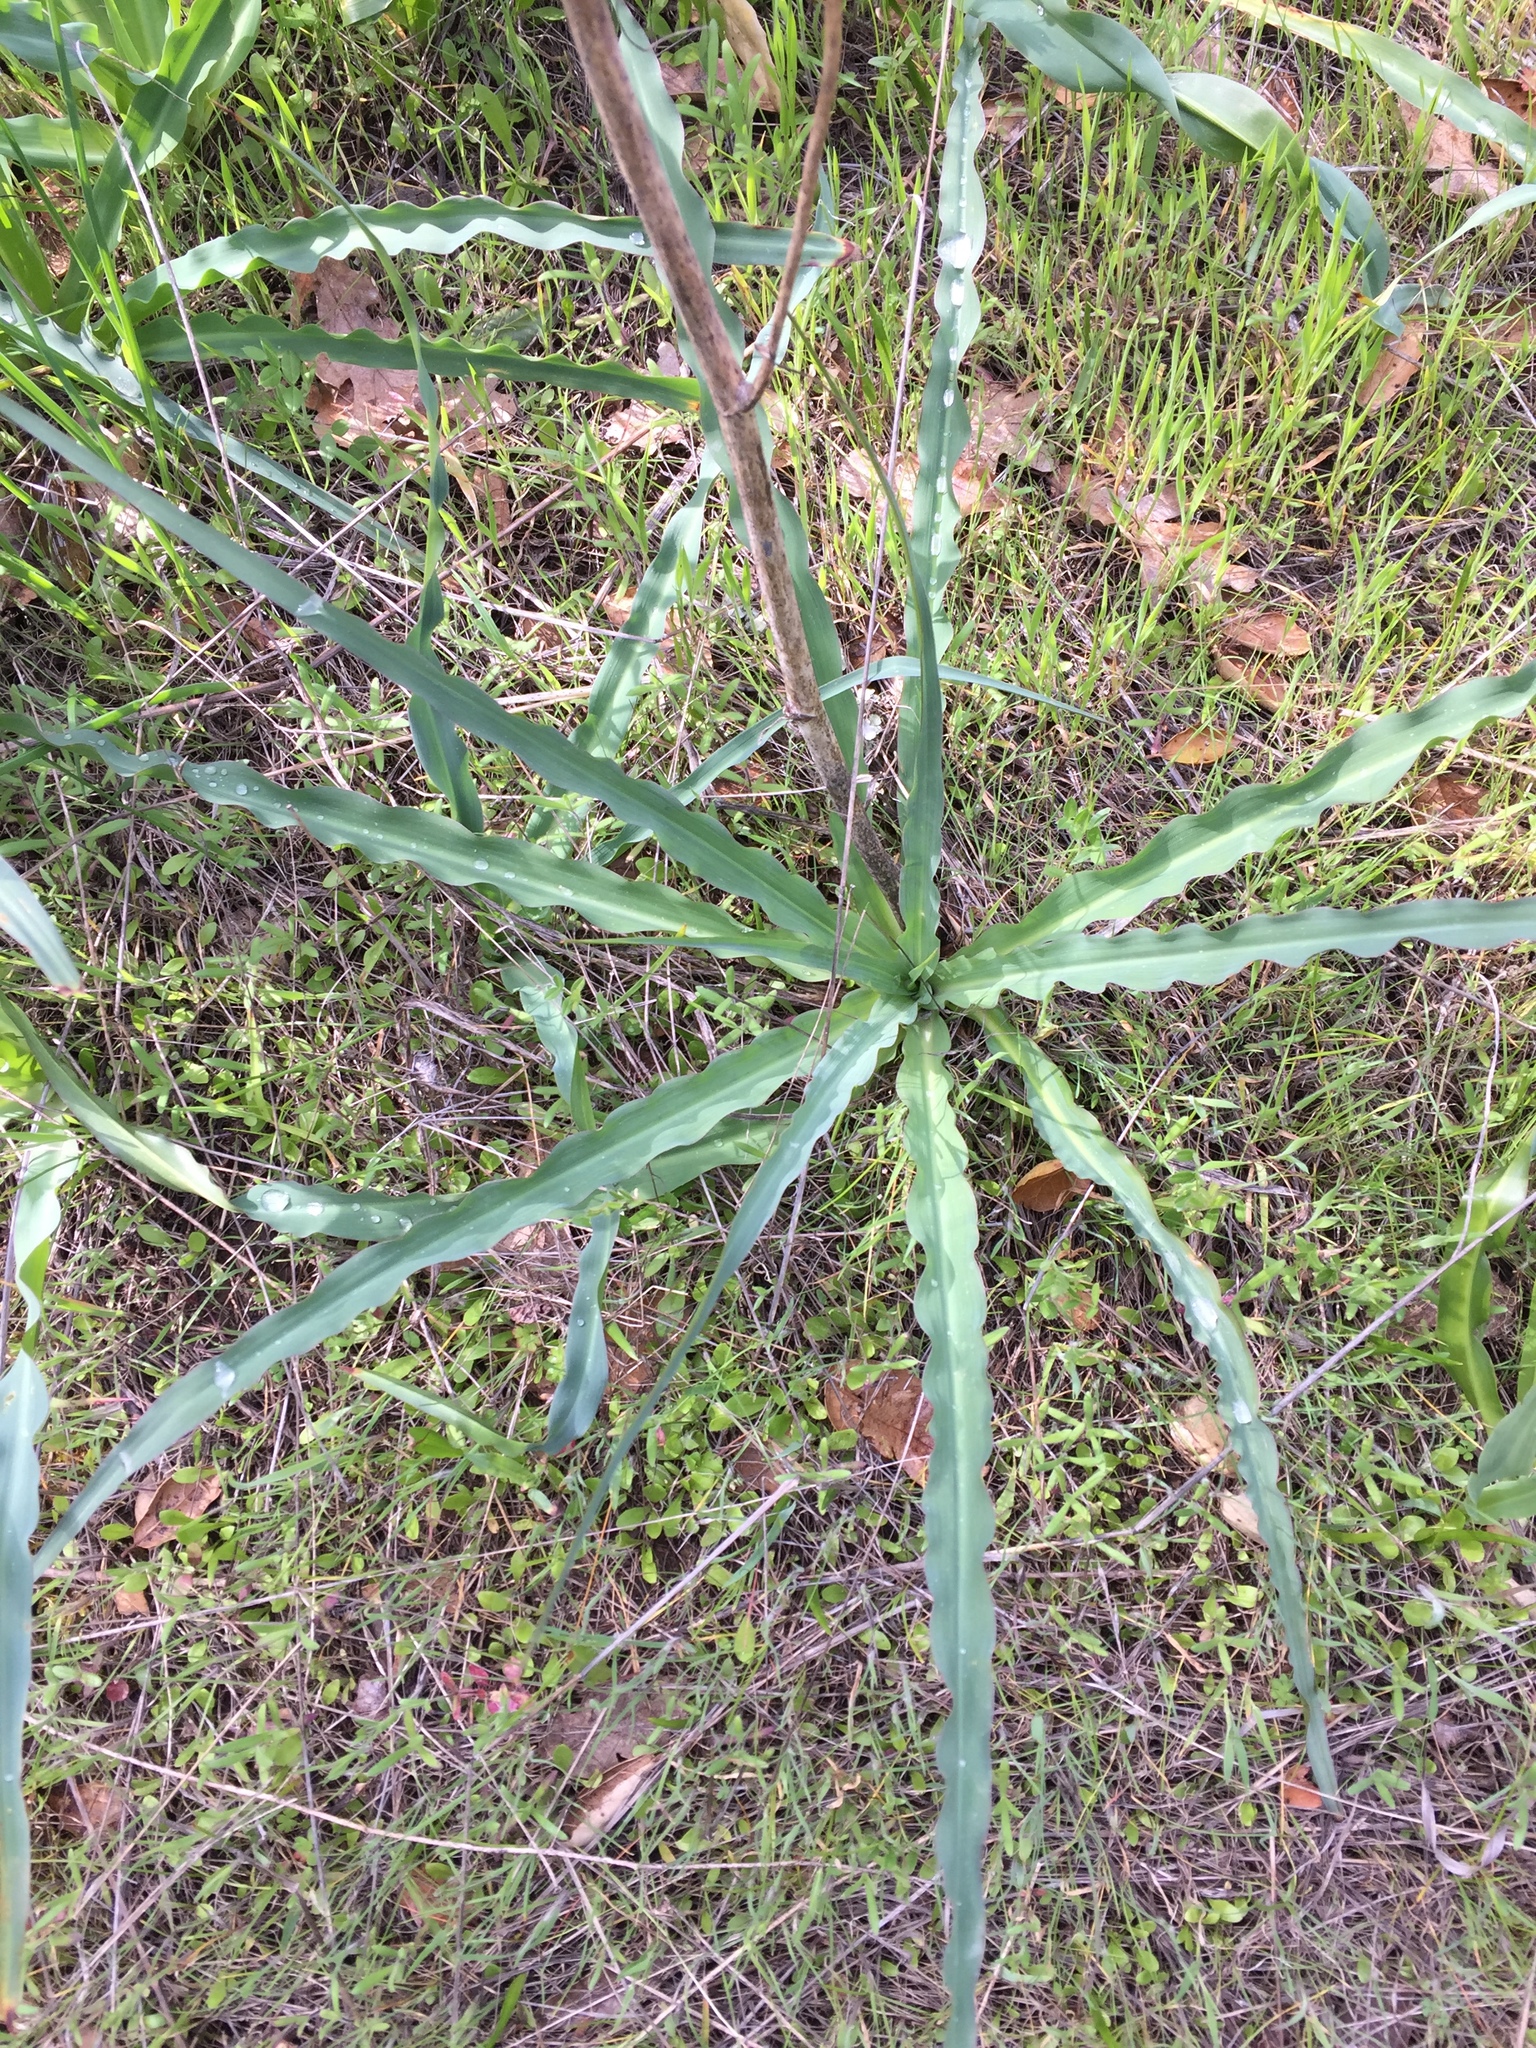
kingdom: Plantae
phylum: Tracheophyta
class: Liliopsida
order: Asparagales
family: Asparagaceae
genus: Chlorogalum
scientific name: Chlorogalum pomeridianum
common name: Amole
